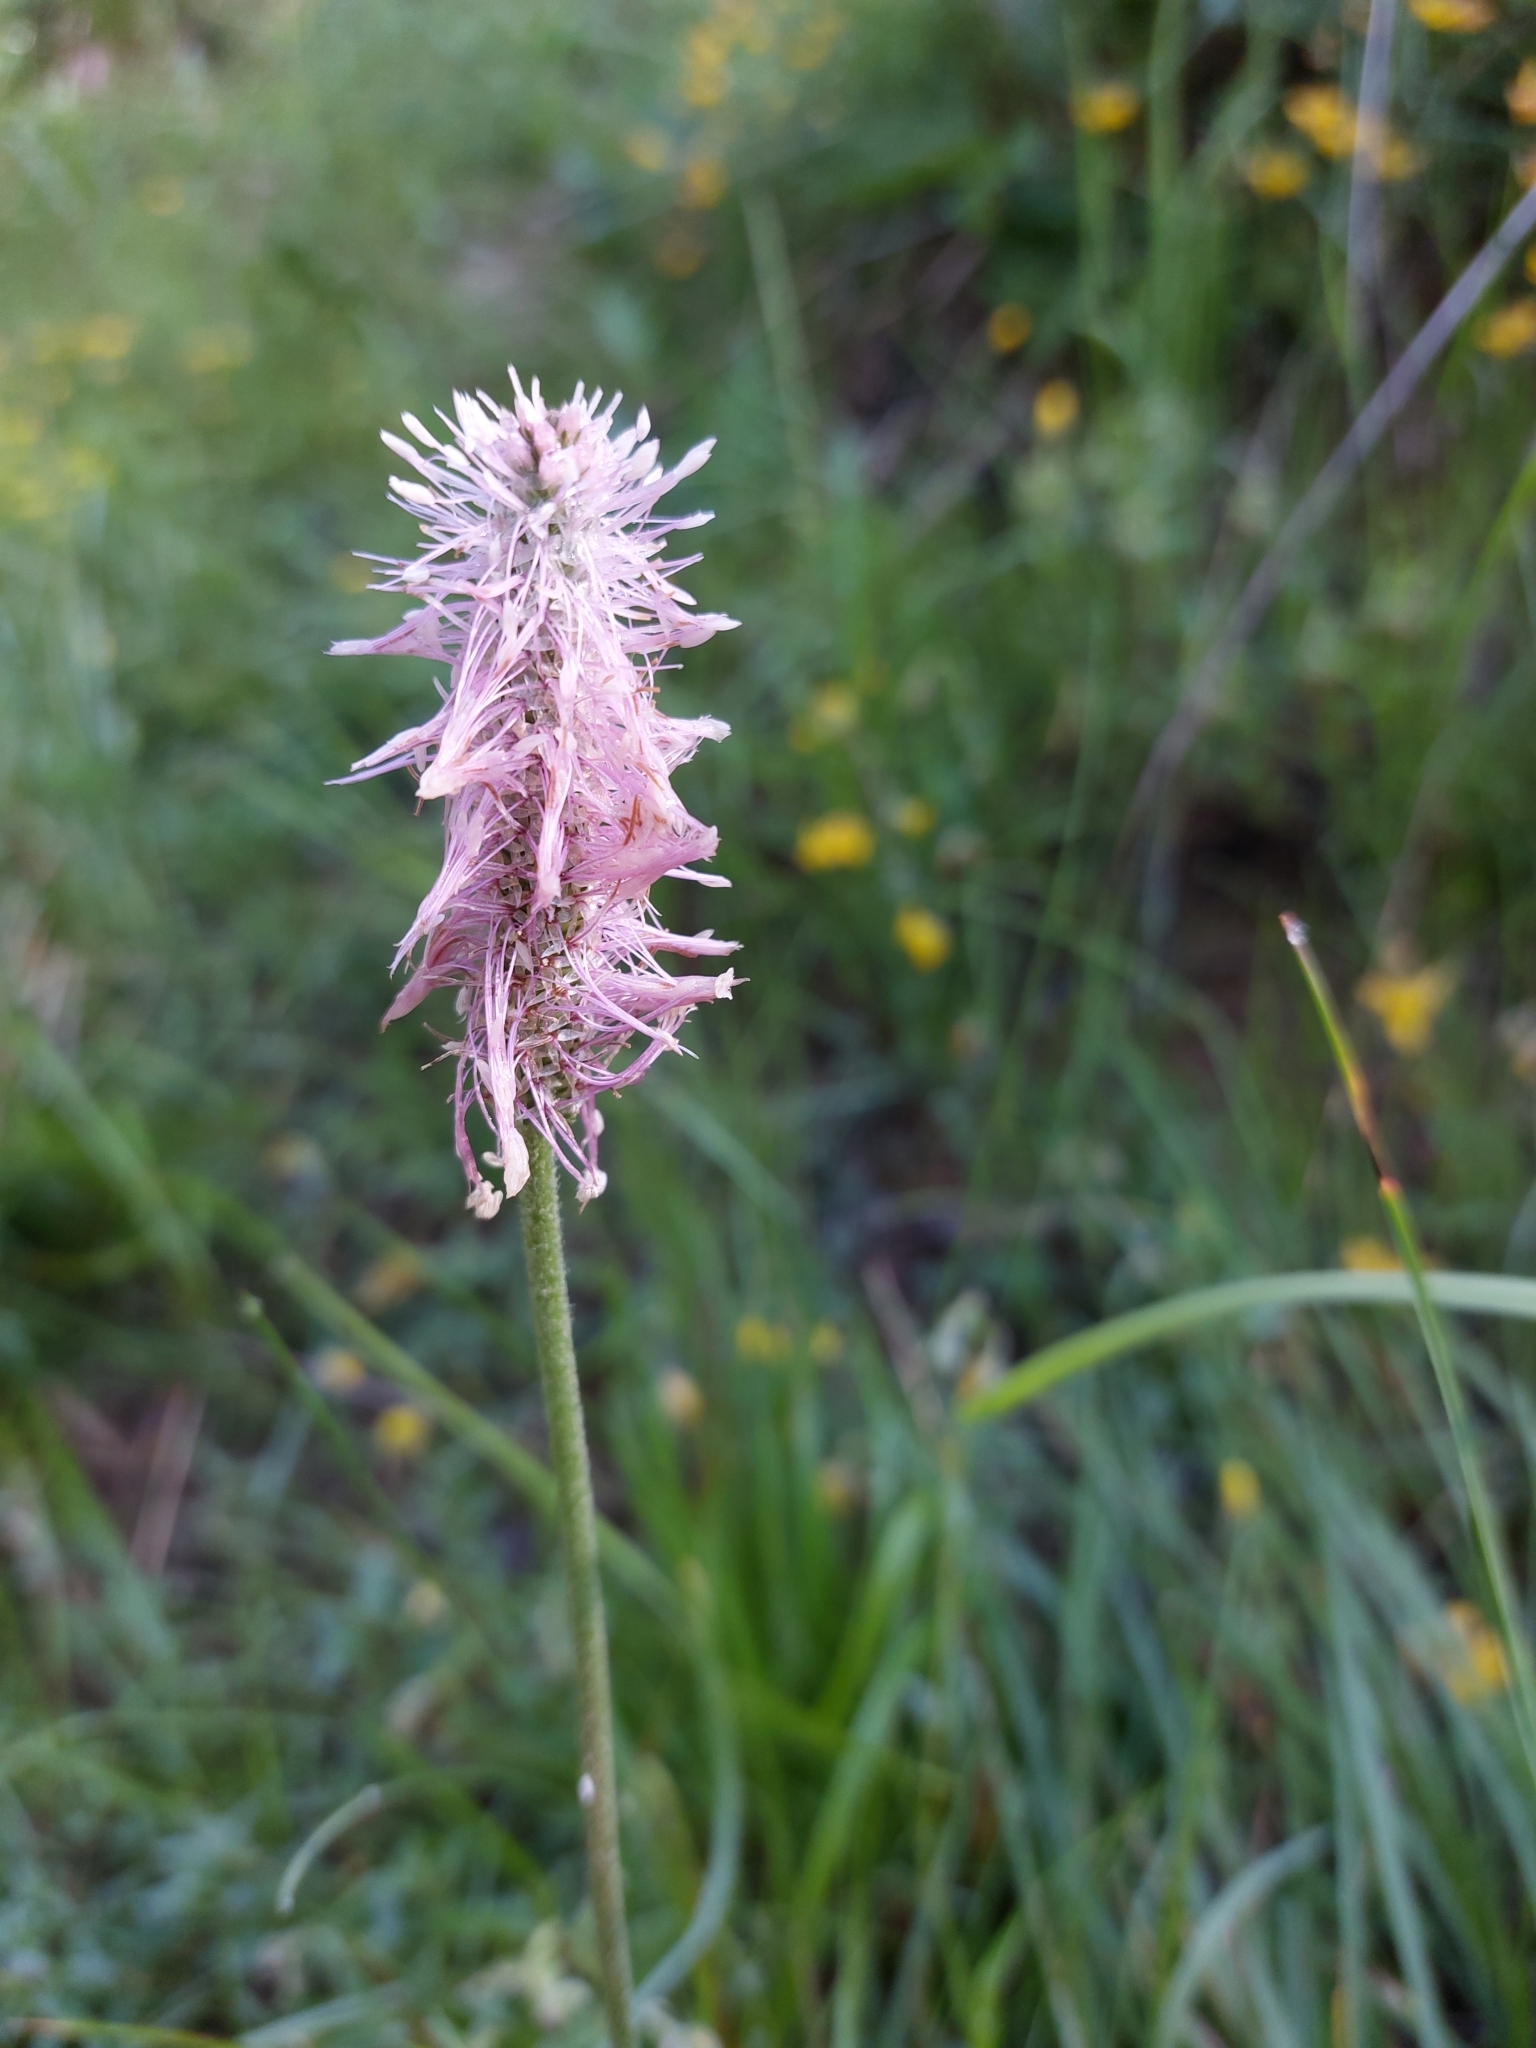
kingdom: Plantae
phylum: Tracheophyta
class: Magnoliopsida
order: Lamiales
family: Plantaginaceae
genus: Plantago
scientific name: Plantago media
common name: Hoary plantain
